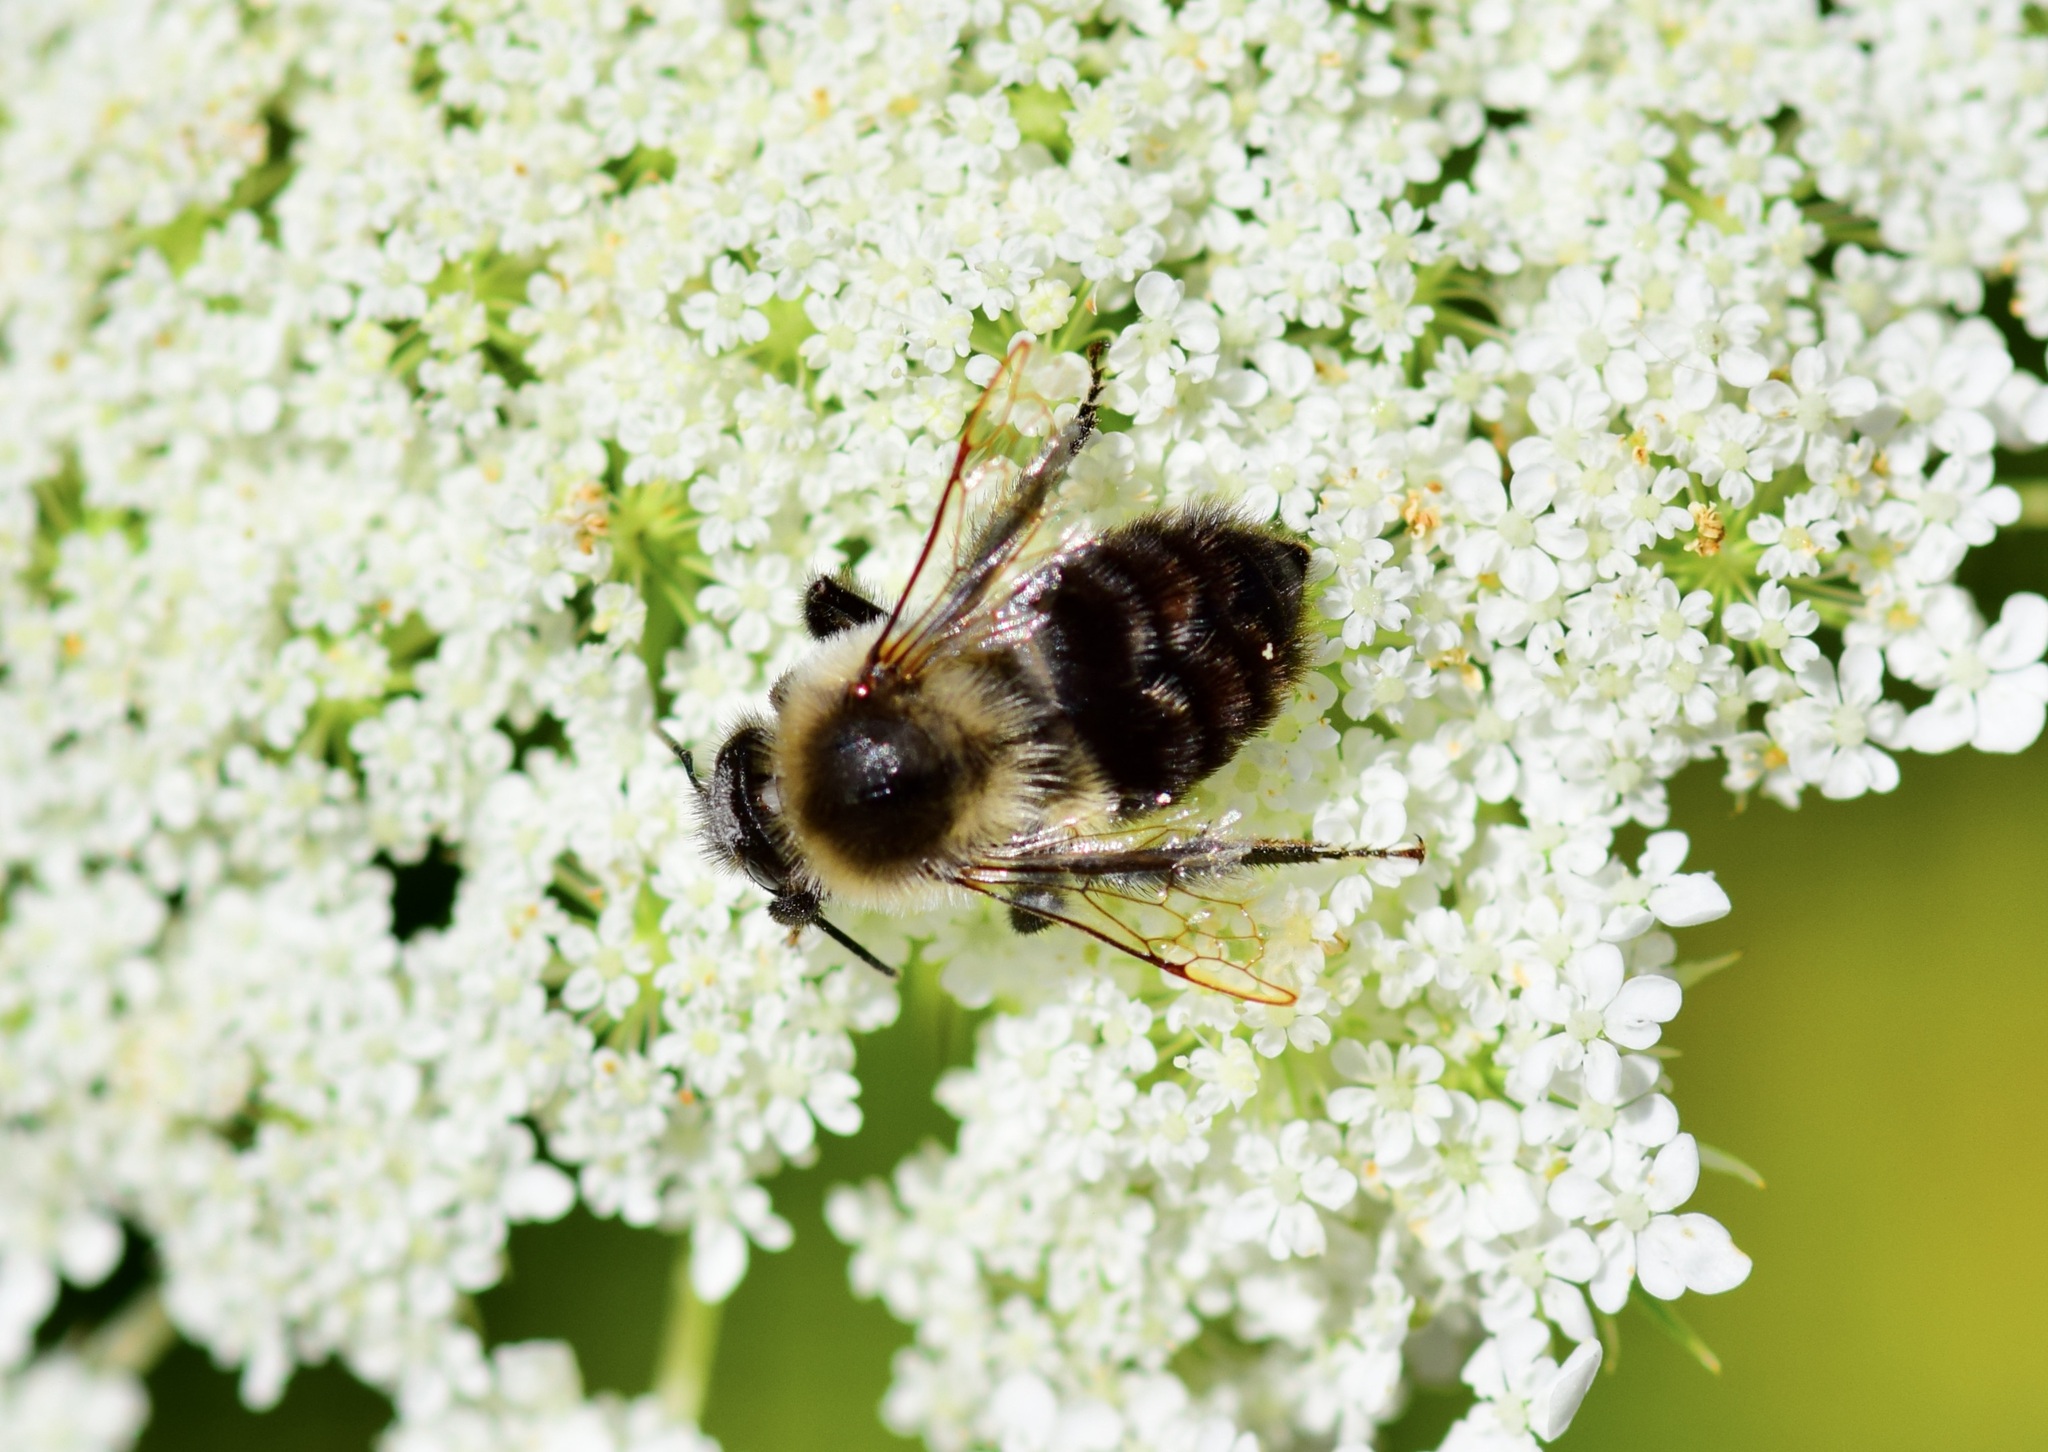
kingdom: Animalia
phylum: Arthropoda
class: Insecta
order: Hymenoptera
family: Apidae
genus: Bombus
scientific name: Bombus impatiens
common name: Common eastern bumble bee
